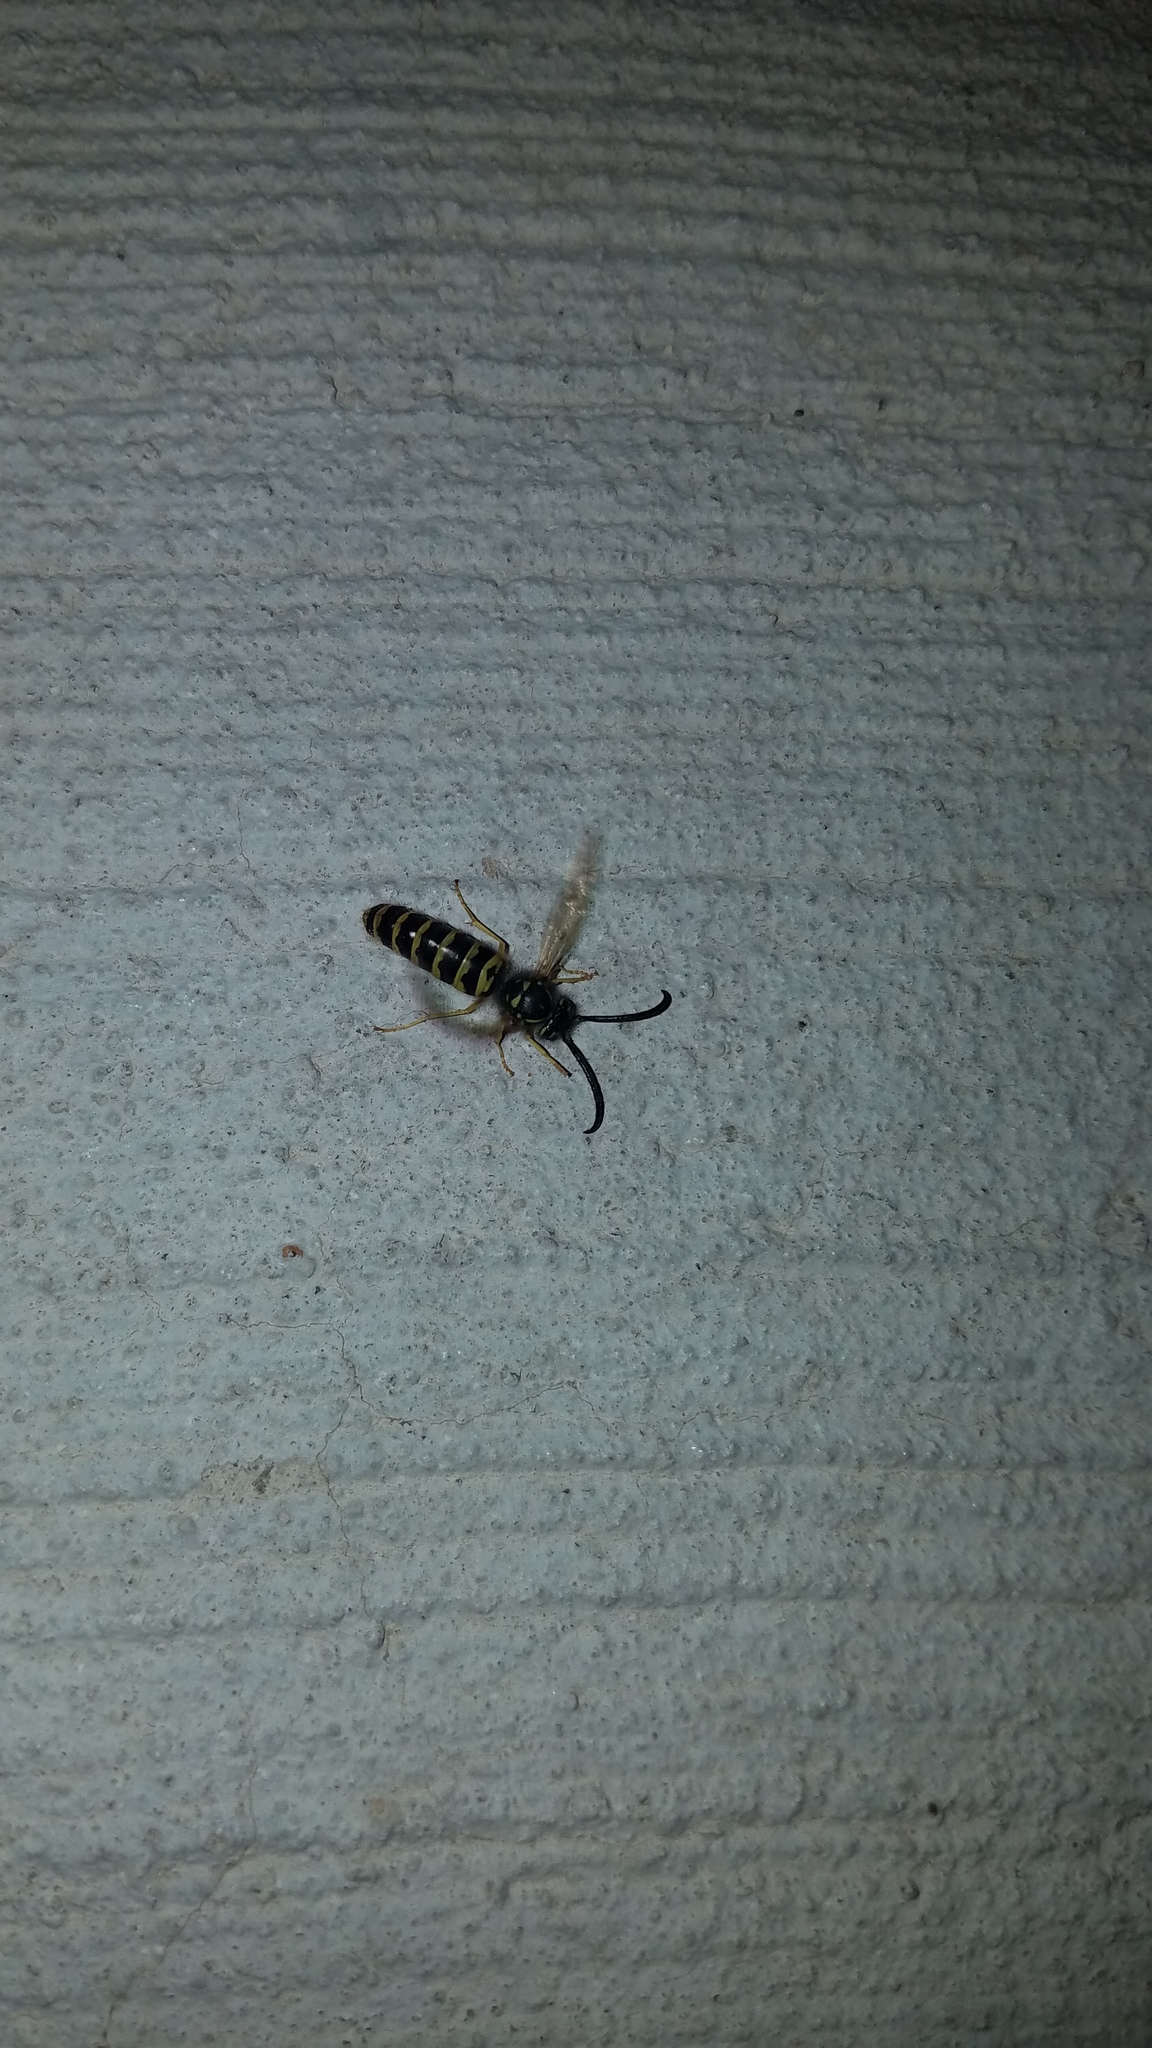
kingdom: Animalia
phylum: Arthropoda
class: Insecta
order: Hymenoptera
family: Vespidae
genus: Vespula
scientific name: Vespula maculifrons
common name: Eastern yellowjacket
